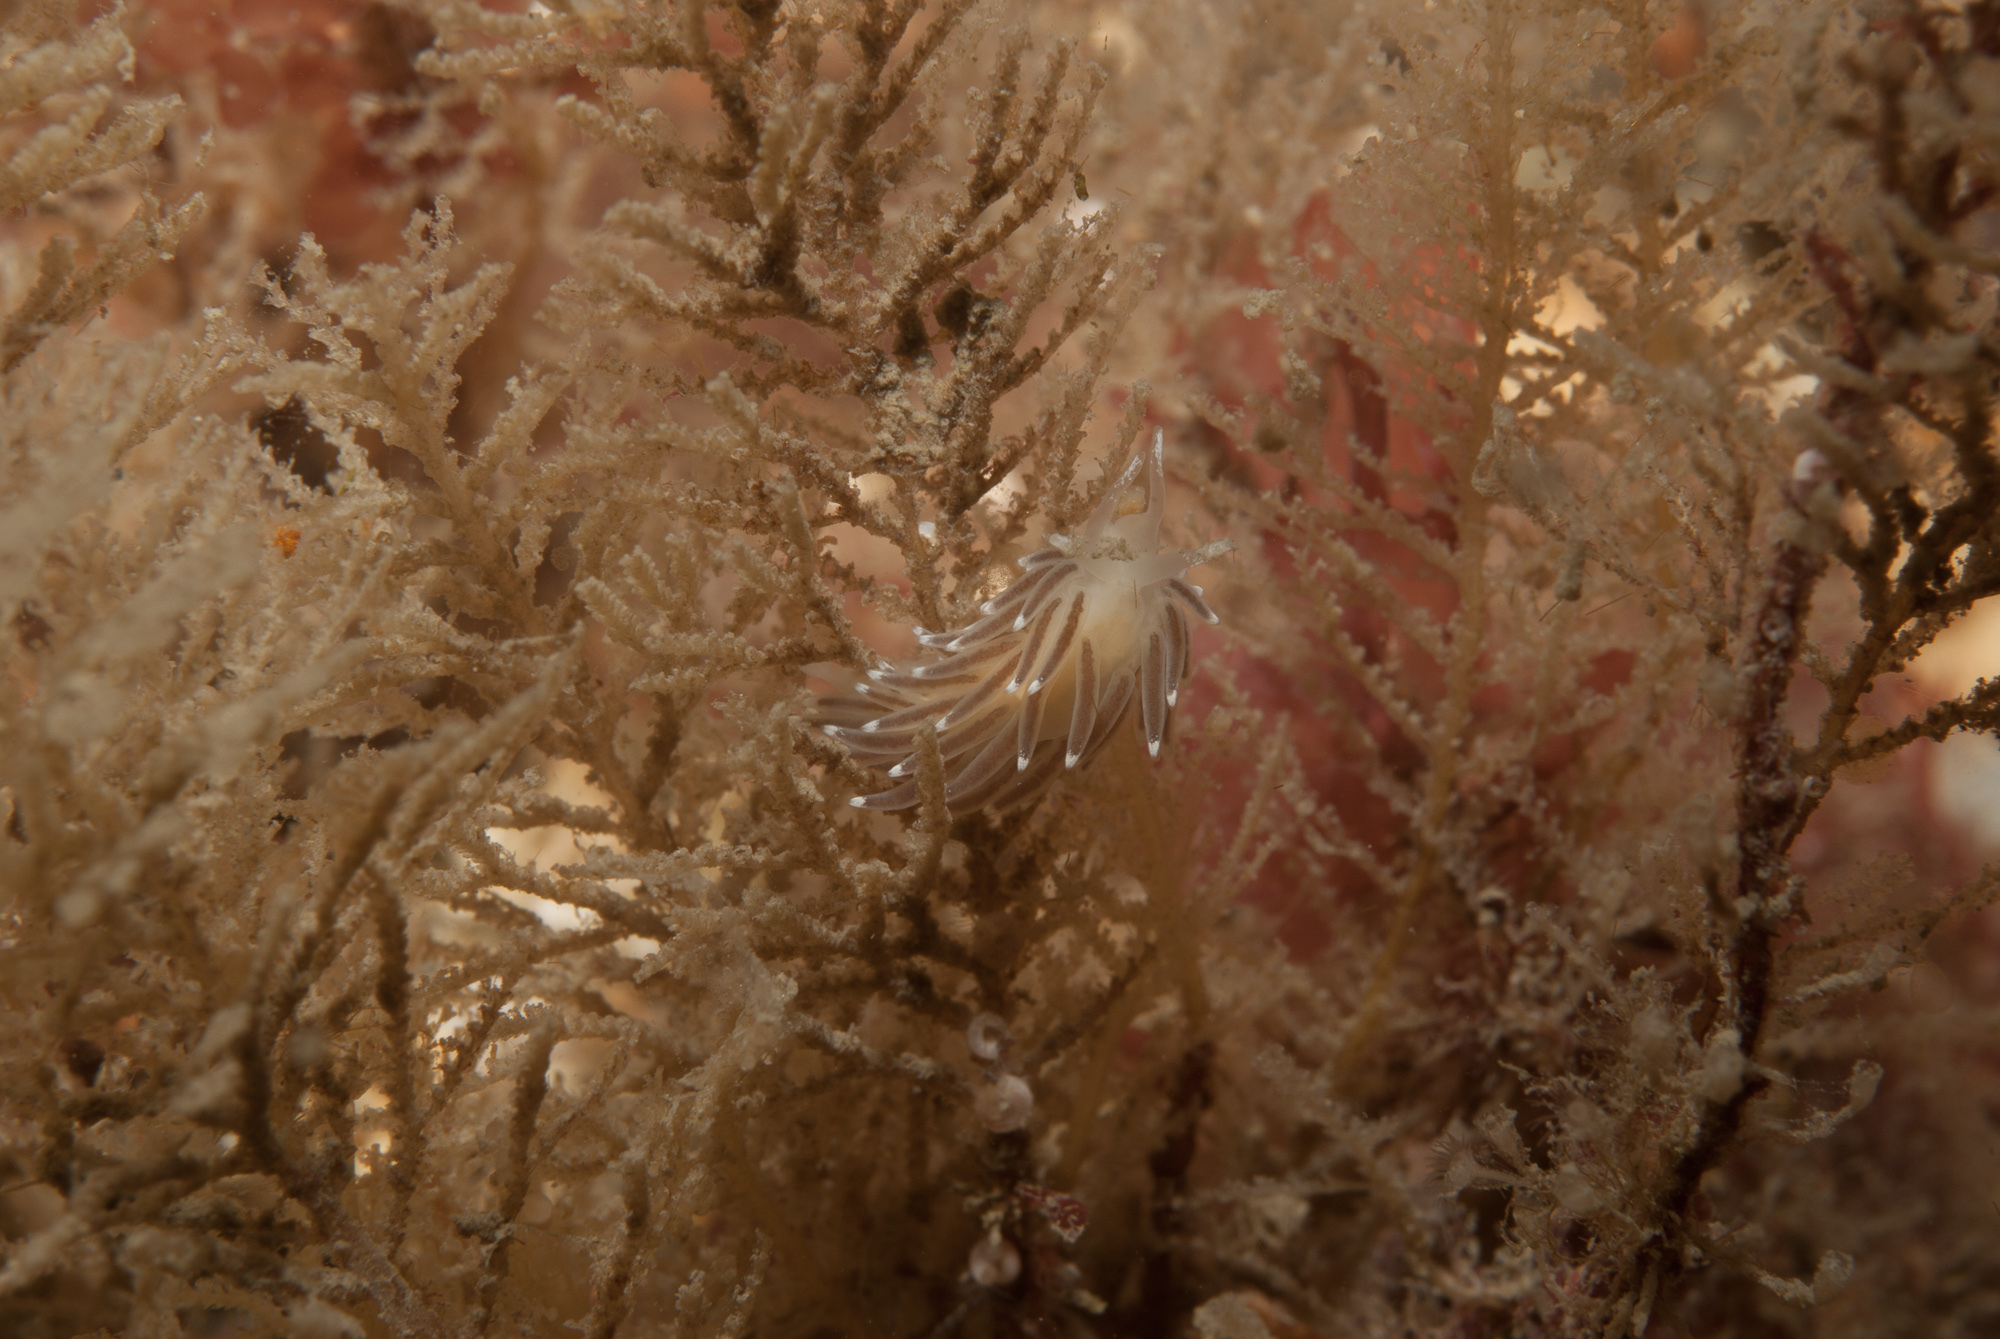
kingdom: Animalia
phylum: Mollusca
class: Gastropoda
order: Nudibranchia
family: Cuthonellidae
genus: Cuthonella
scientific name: Cuthonella concinna
